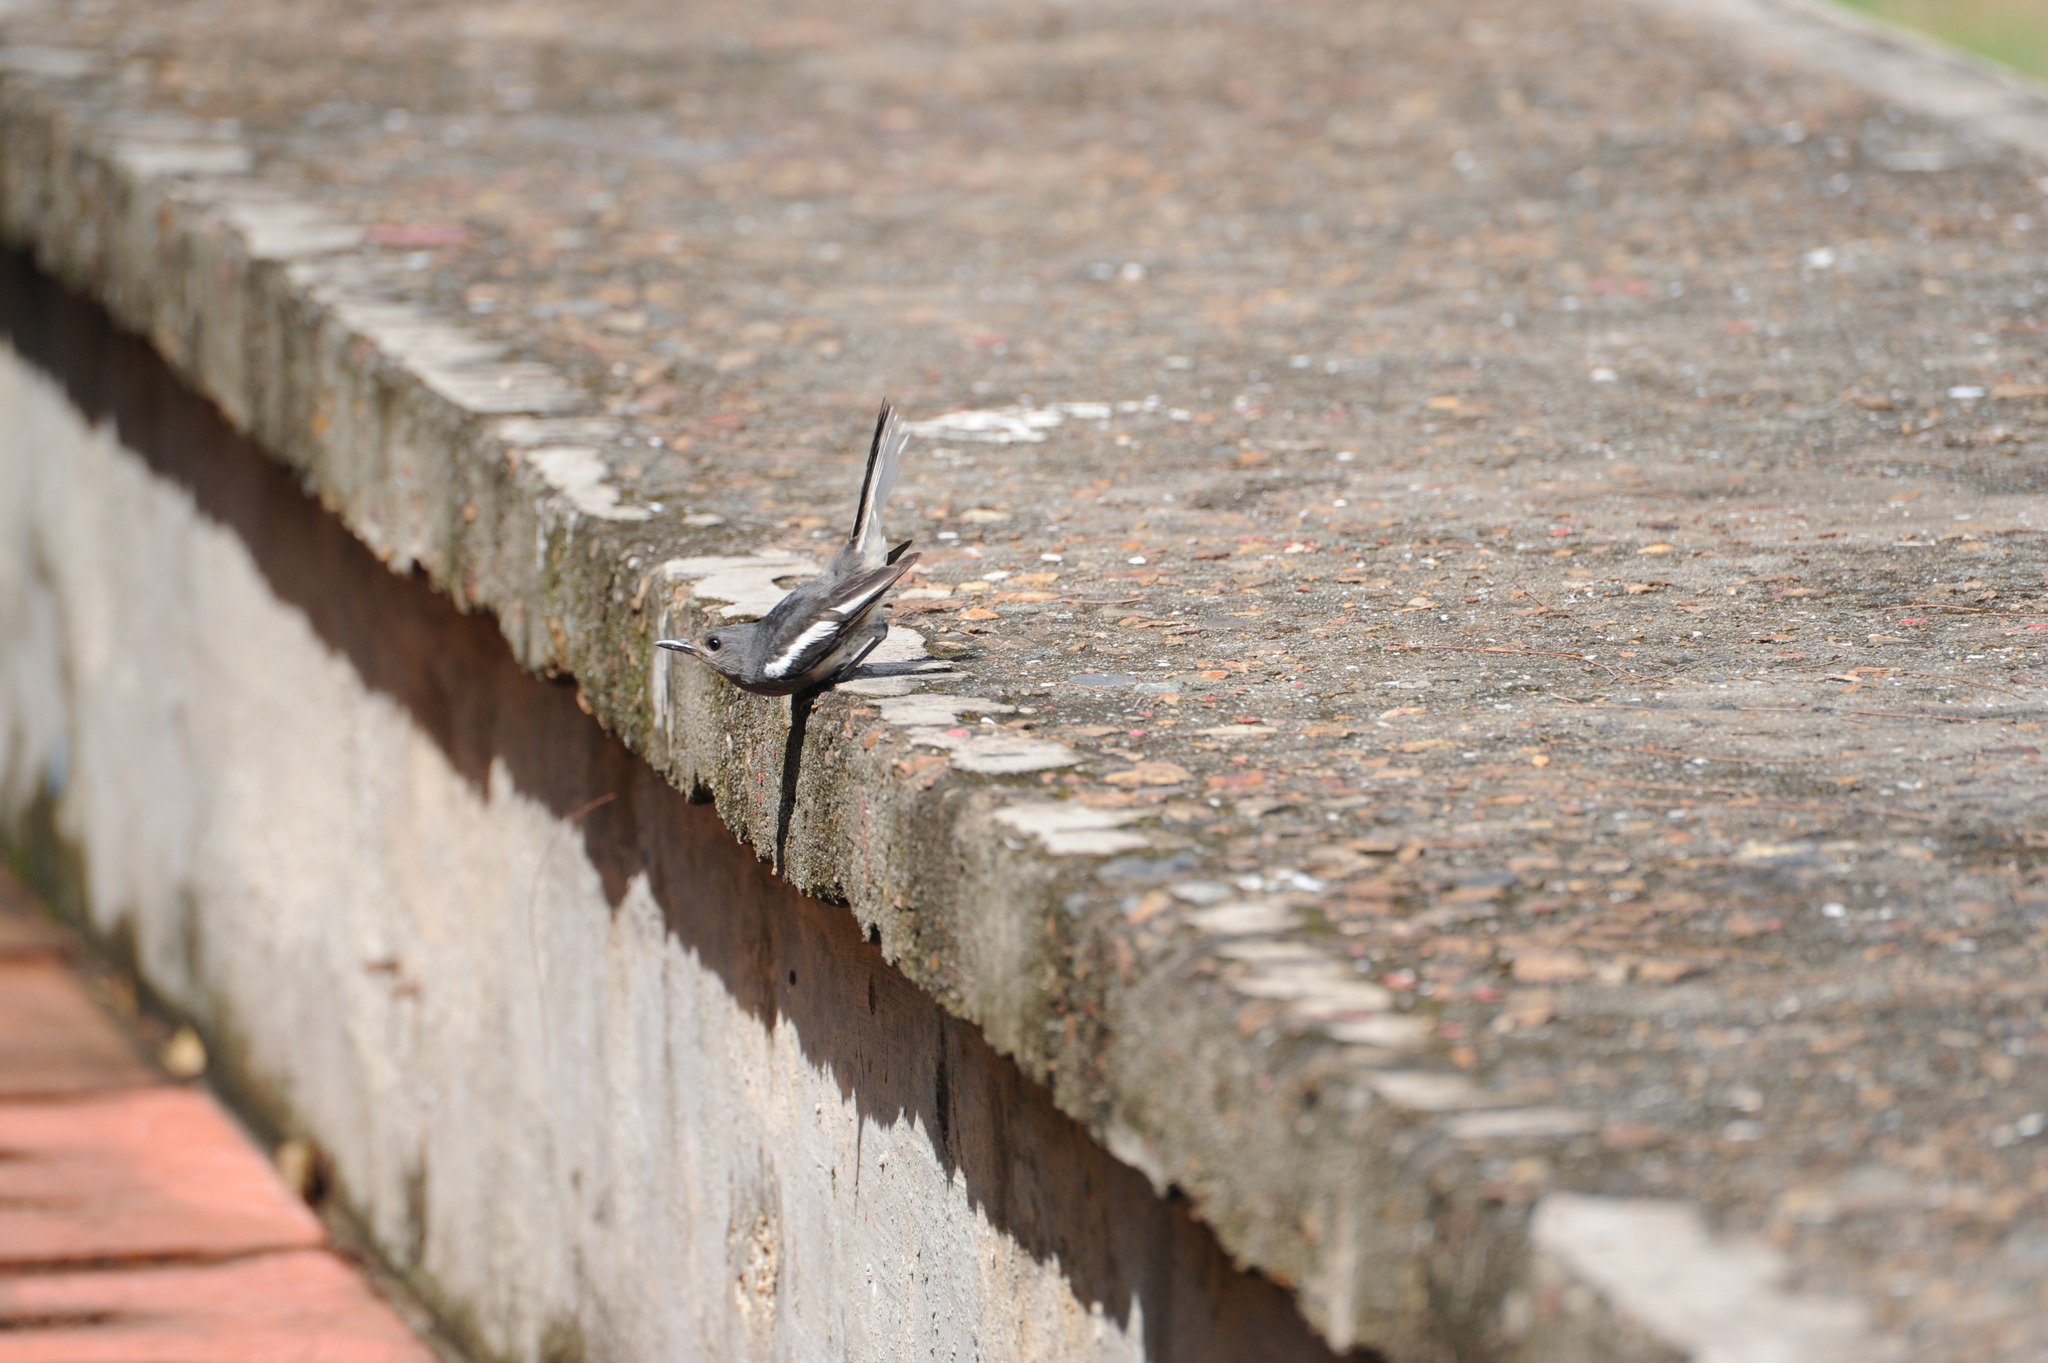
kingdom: Animalia
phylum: Chordata
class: Aves
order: Passeriformes
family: Muscicapidae
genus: Copsychus
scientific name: Copsychus saularis
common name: Oriental magpie-robin
